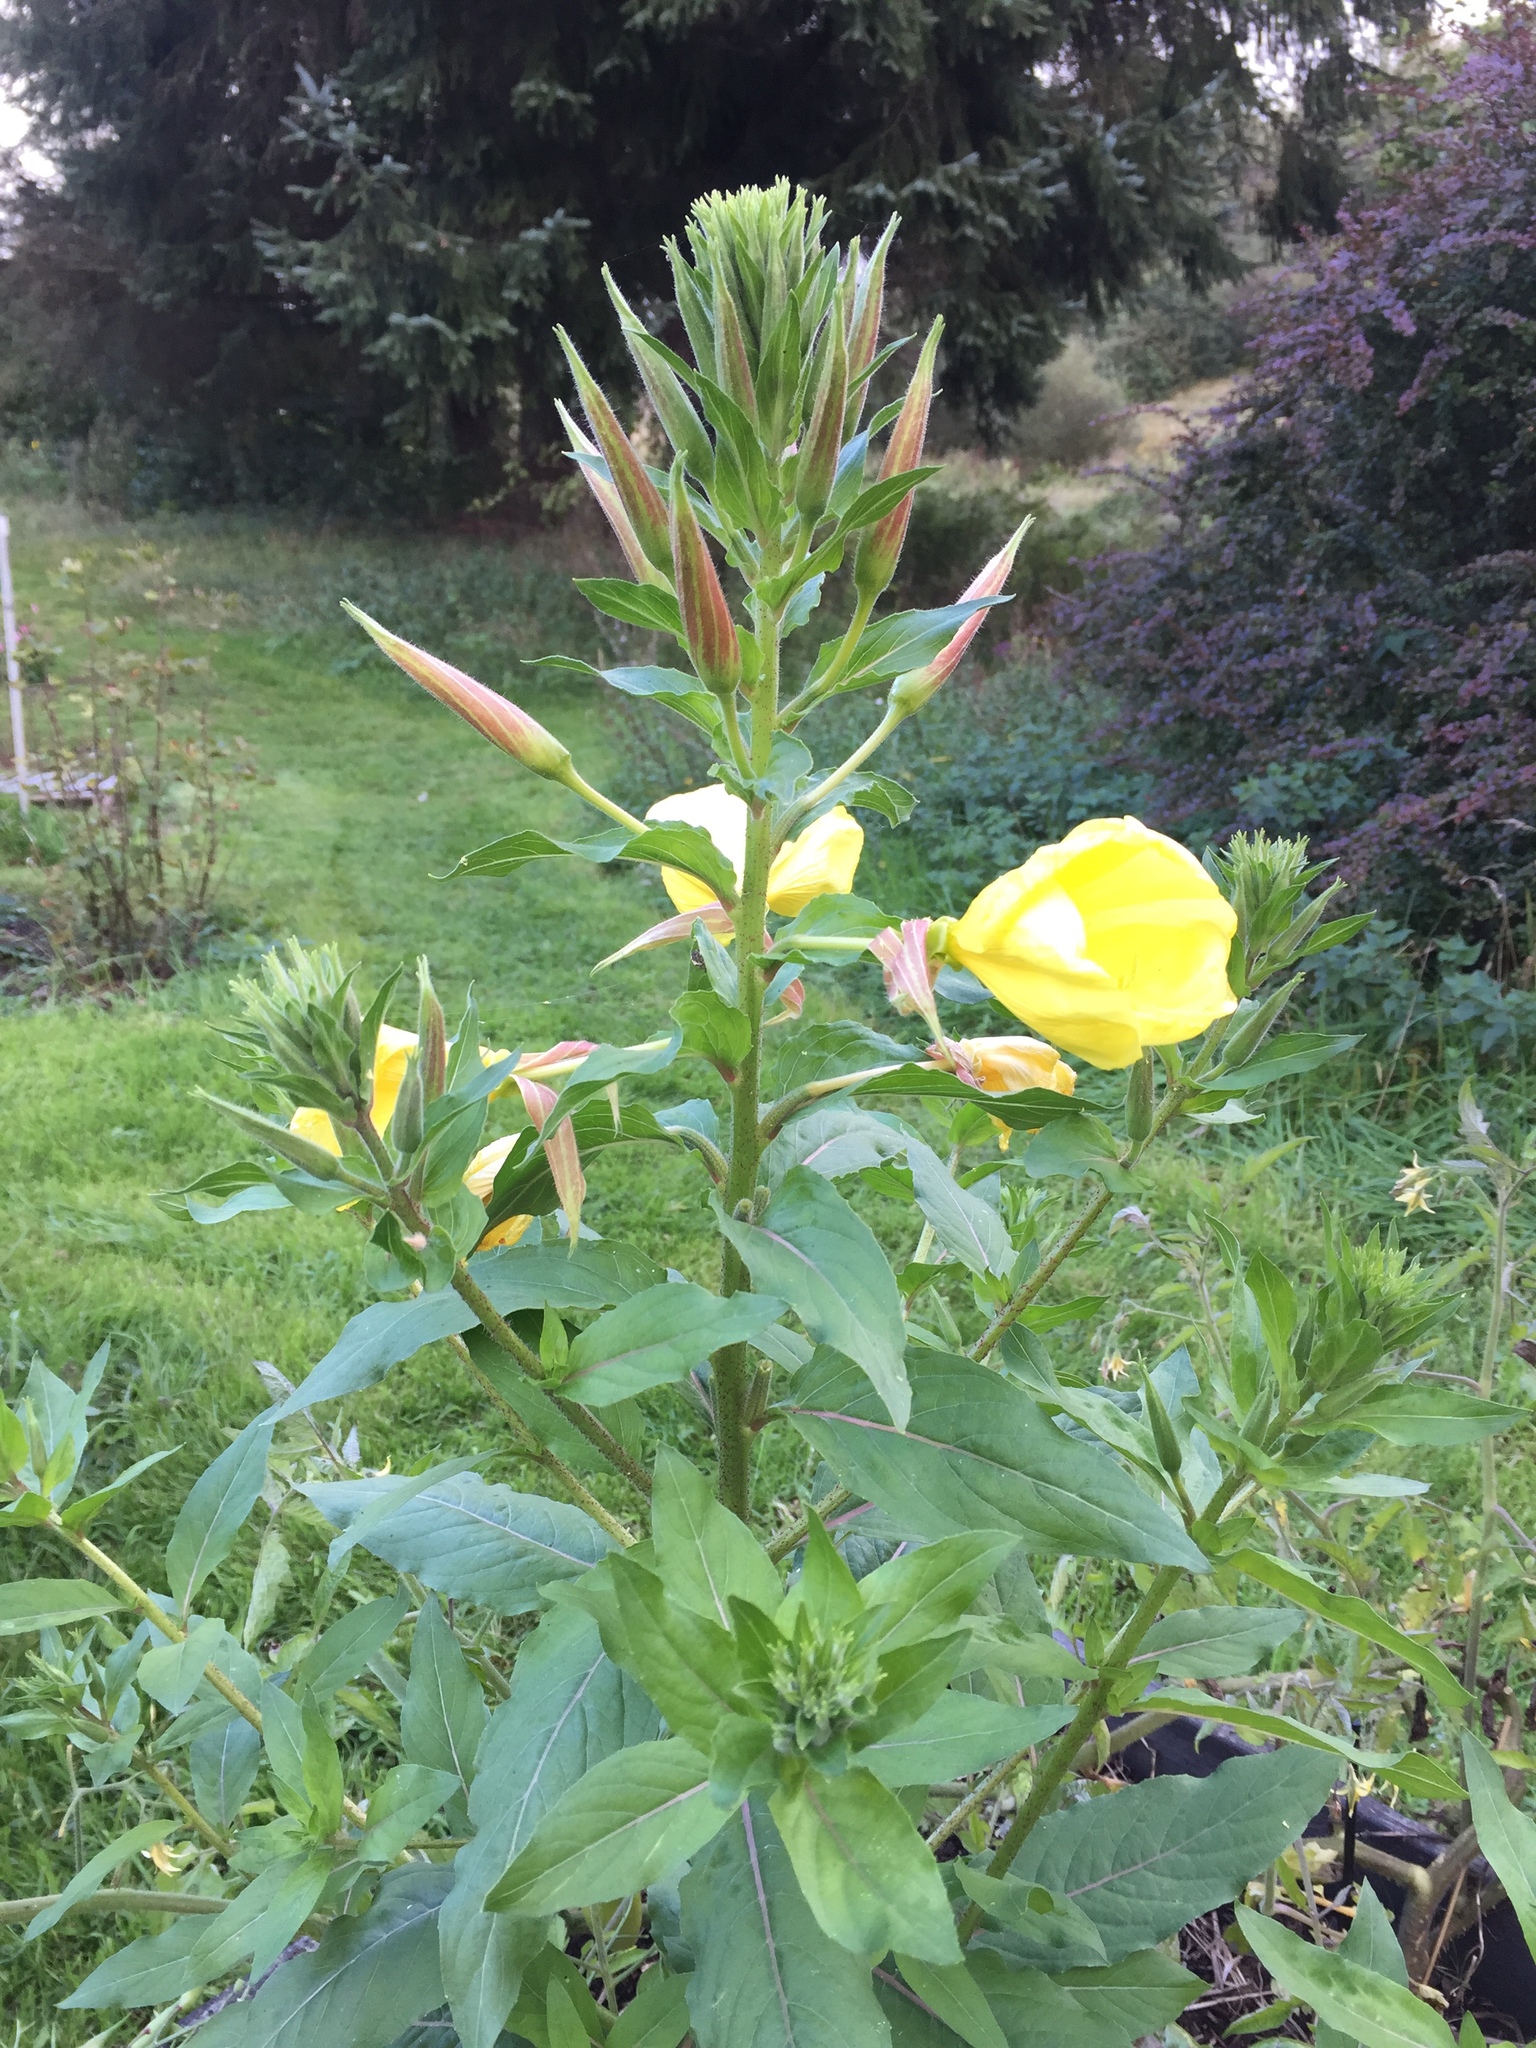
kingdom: Plantae
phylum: Tracheophyta
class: Magnoliopsida
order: Myrtales
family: Onagraceae
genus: Oenothera
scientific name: Oenothera glazioviana
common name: Large-flowered evening-primrose
